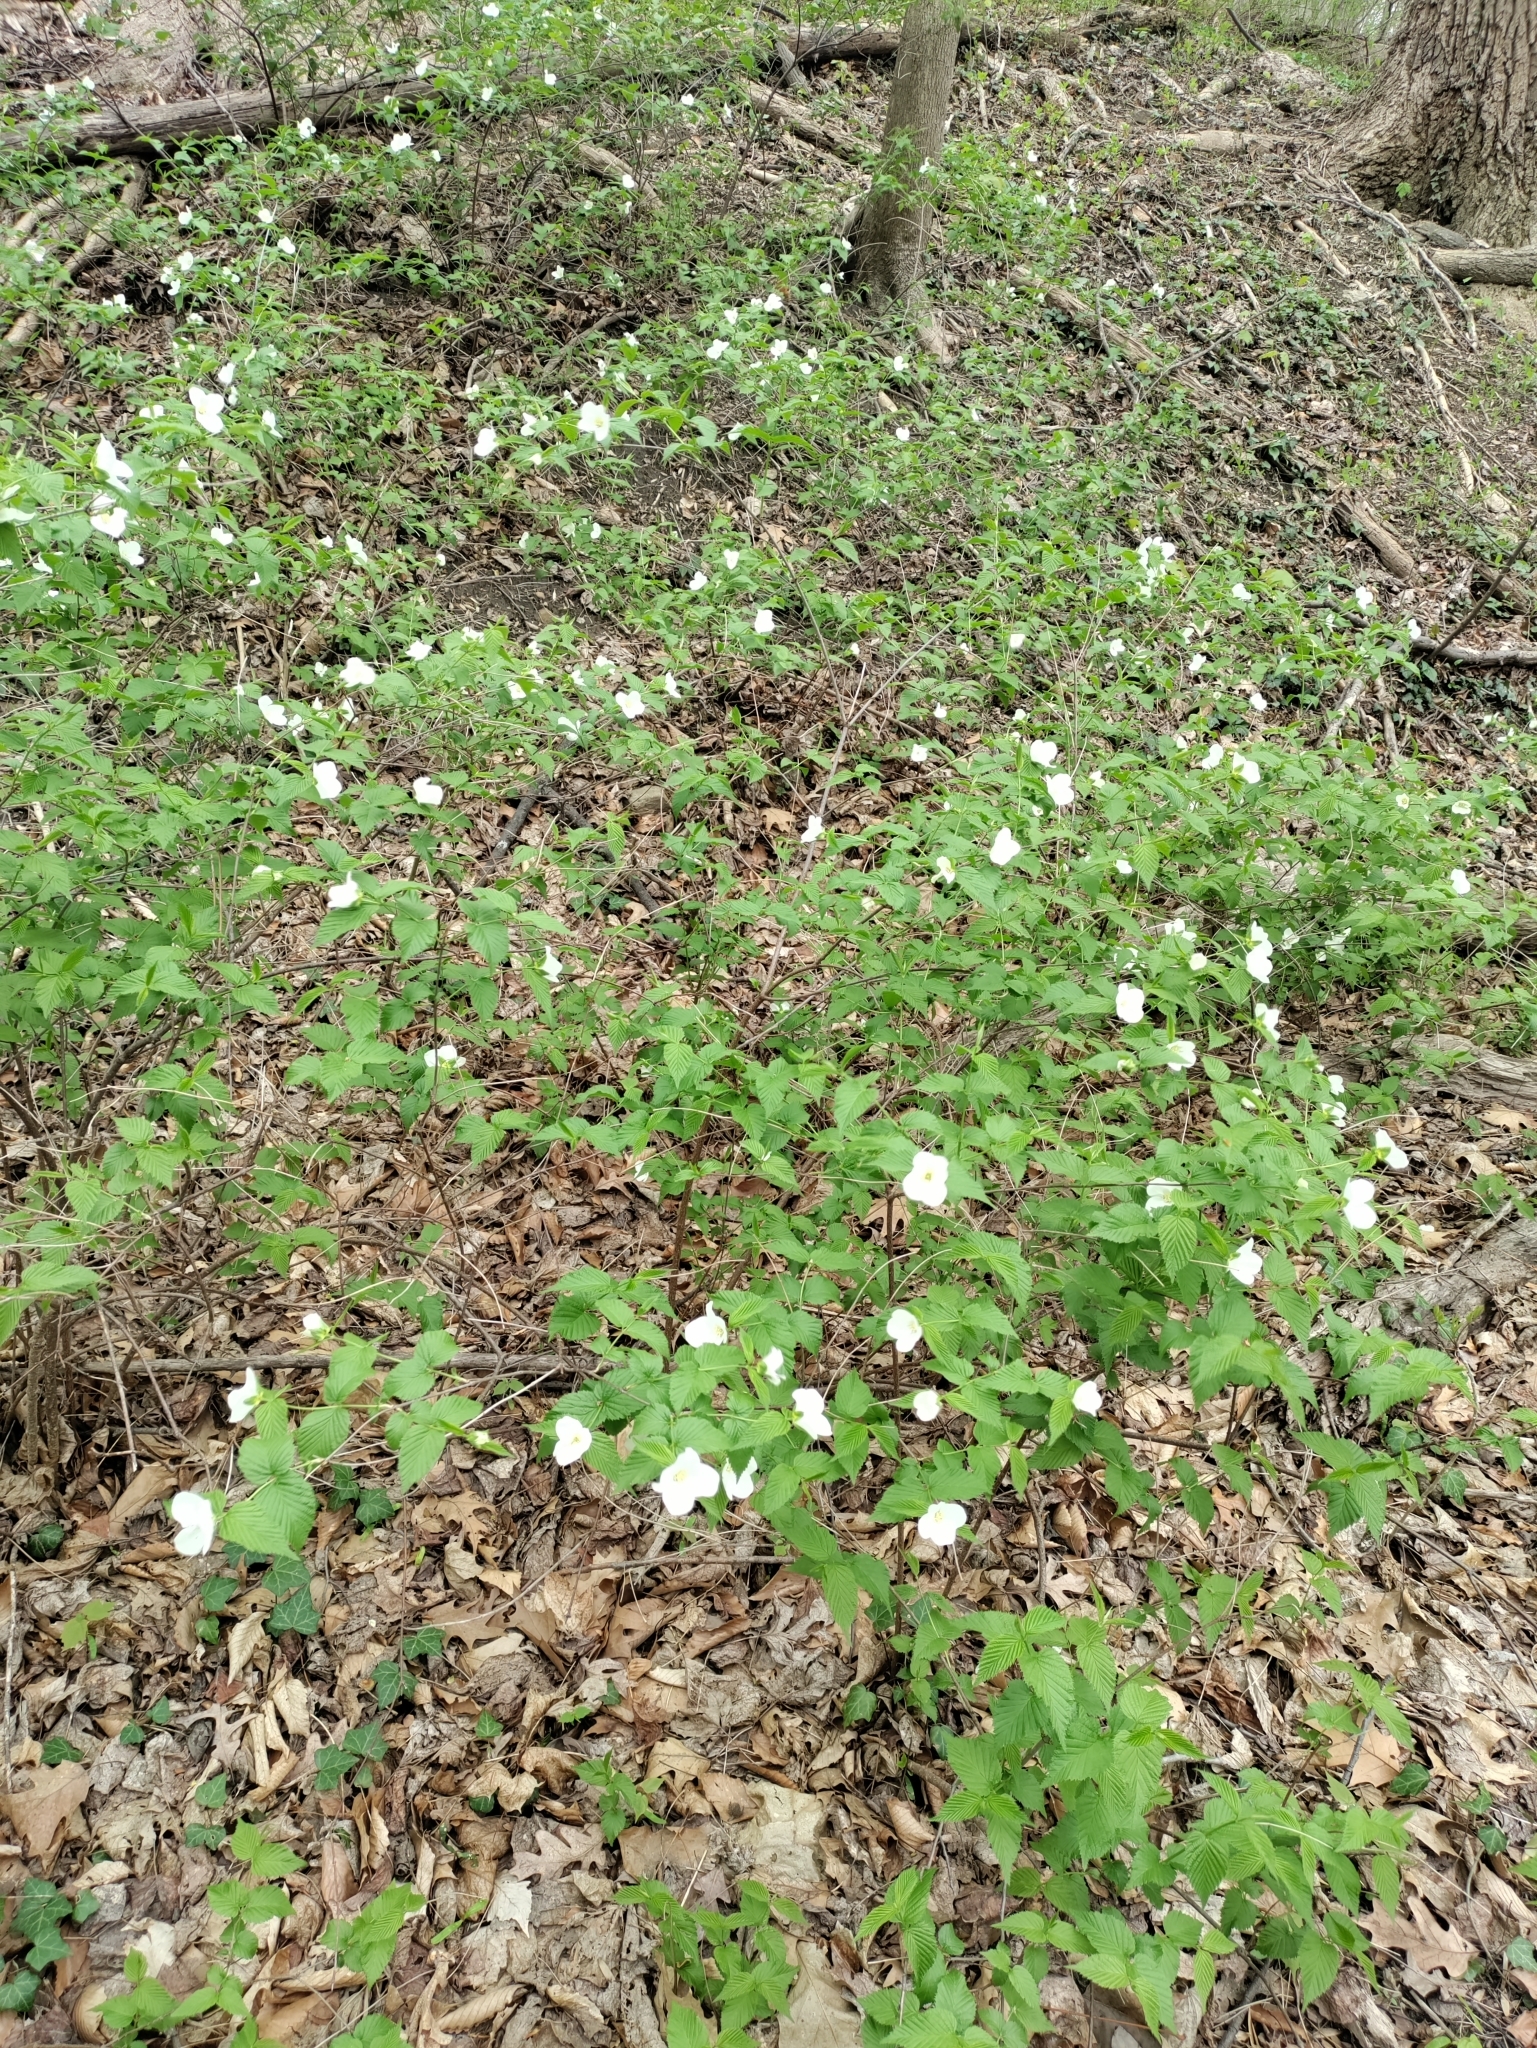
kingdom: Plantae
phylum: Tracheophyta
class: Magnoliopsida
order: Rosales
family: Rosaceae
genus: Rhodotypos
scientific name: Rhodotypos scandens
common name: Jetbead
